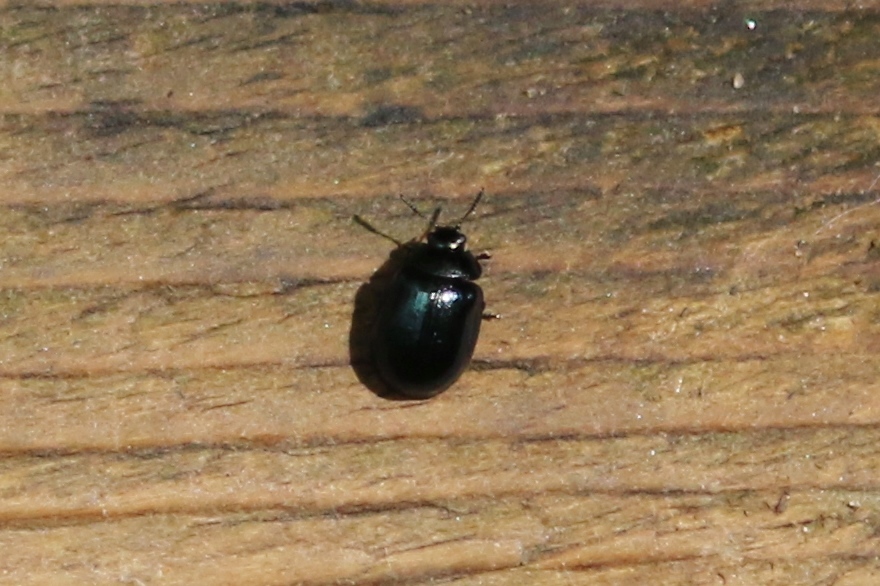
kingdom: Animalia
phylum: Arthropoda
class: Insecta
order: Coleoptera
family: Chrysomelidae
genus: Plagiodera
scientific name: Plagiodera versicolora
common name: Imported willow leaf beetle
